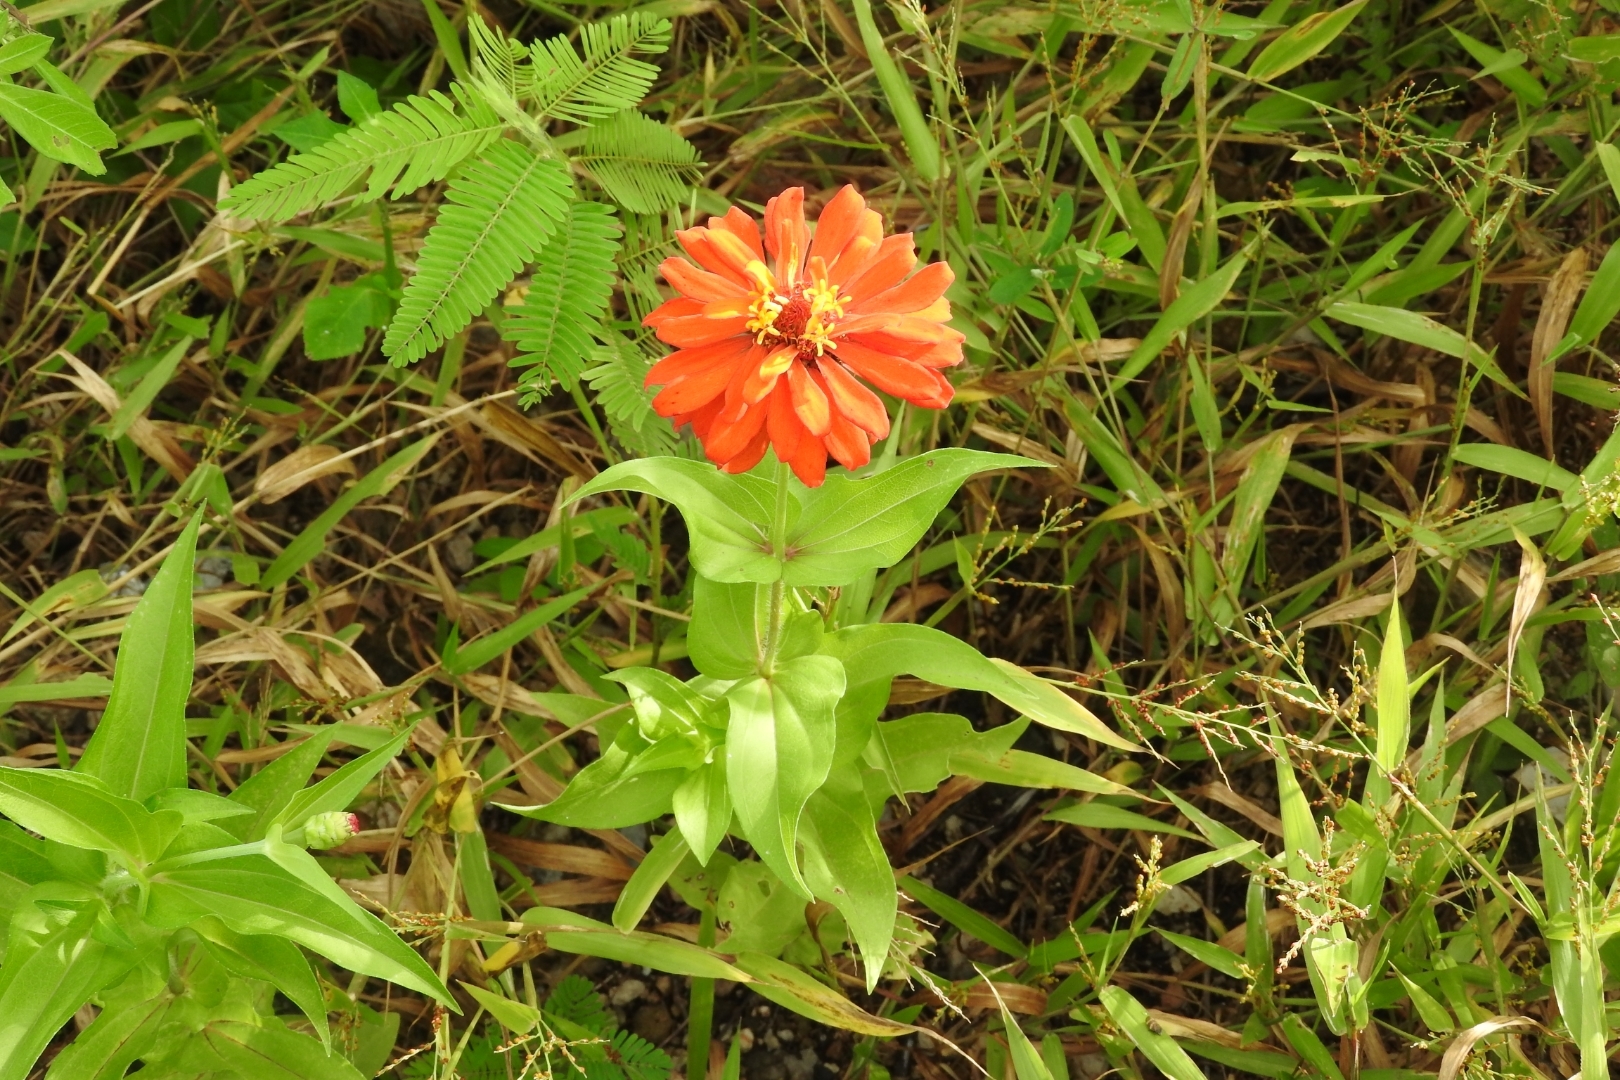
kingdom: Plantae
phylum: Tracheophyta
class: Magnoliopsida
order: Asterales
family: Asteraceae
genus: Zinnia
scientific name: Zinnia elegans
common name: Youth-and-age
